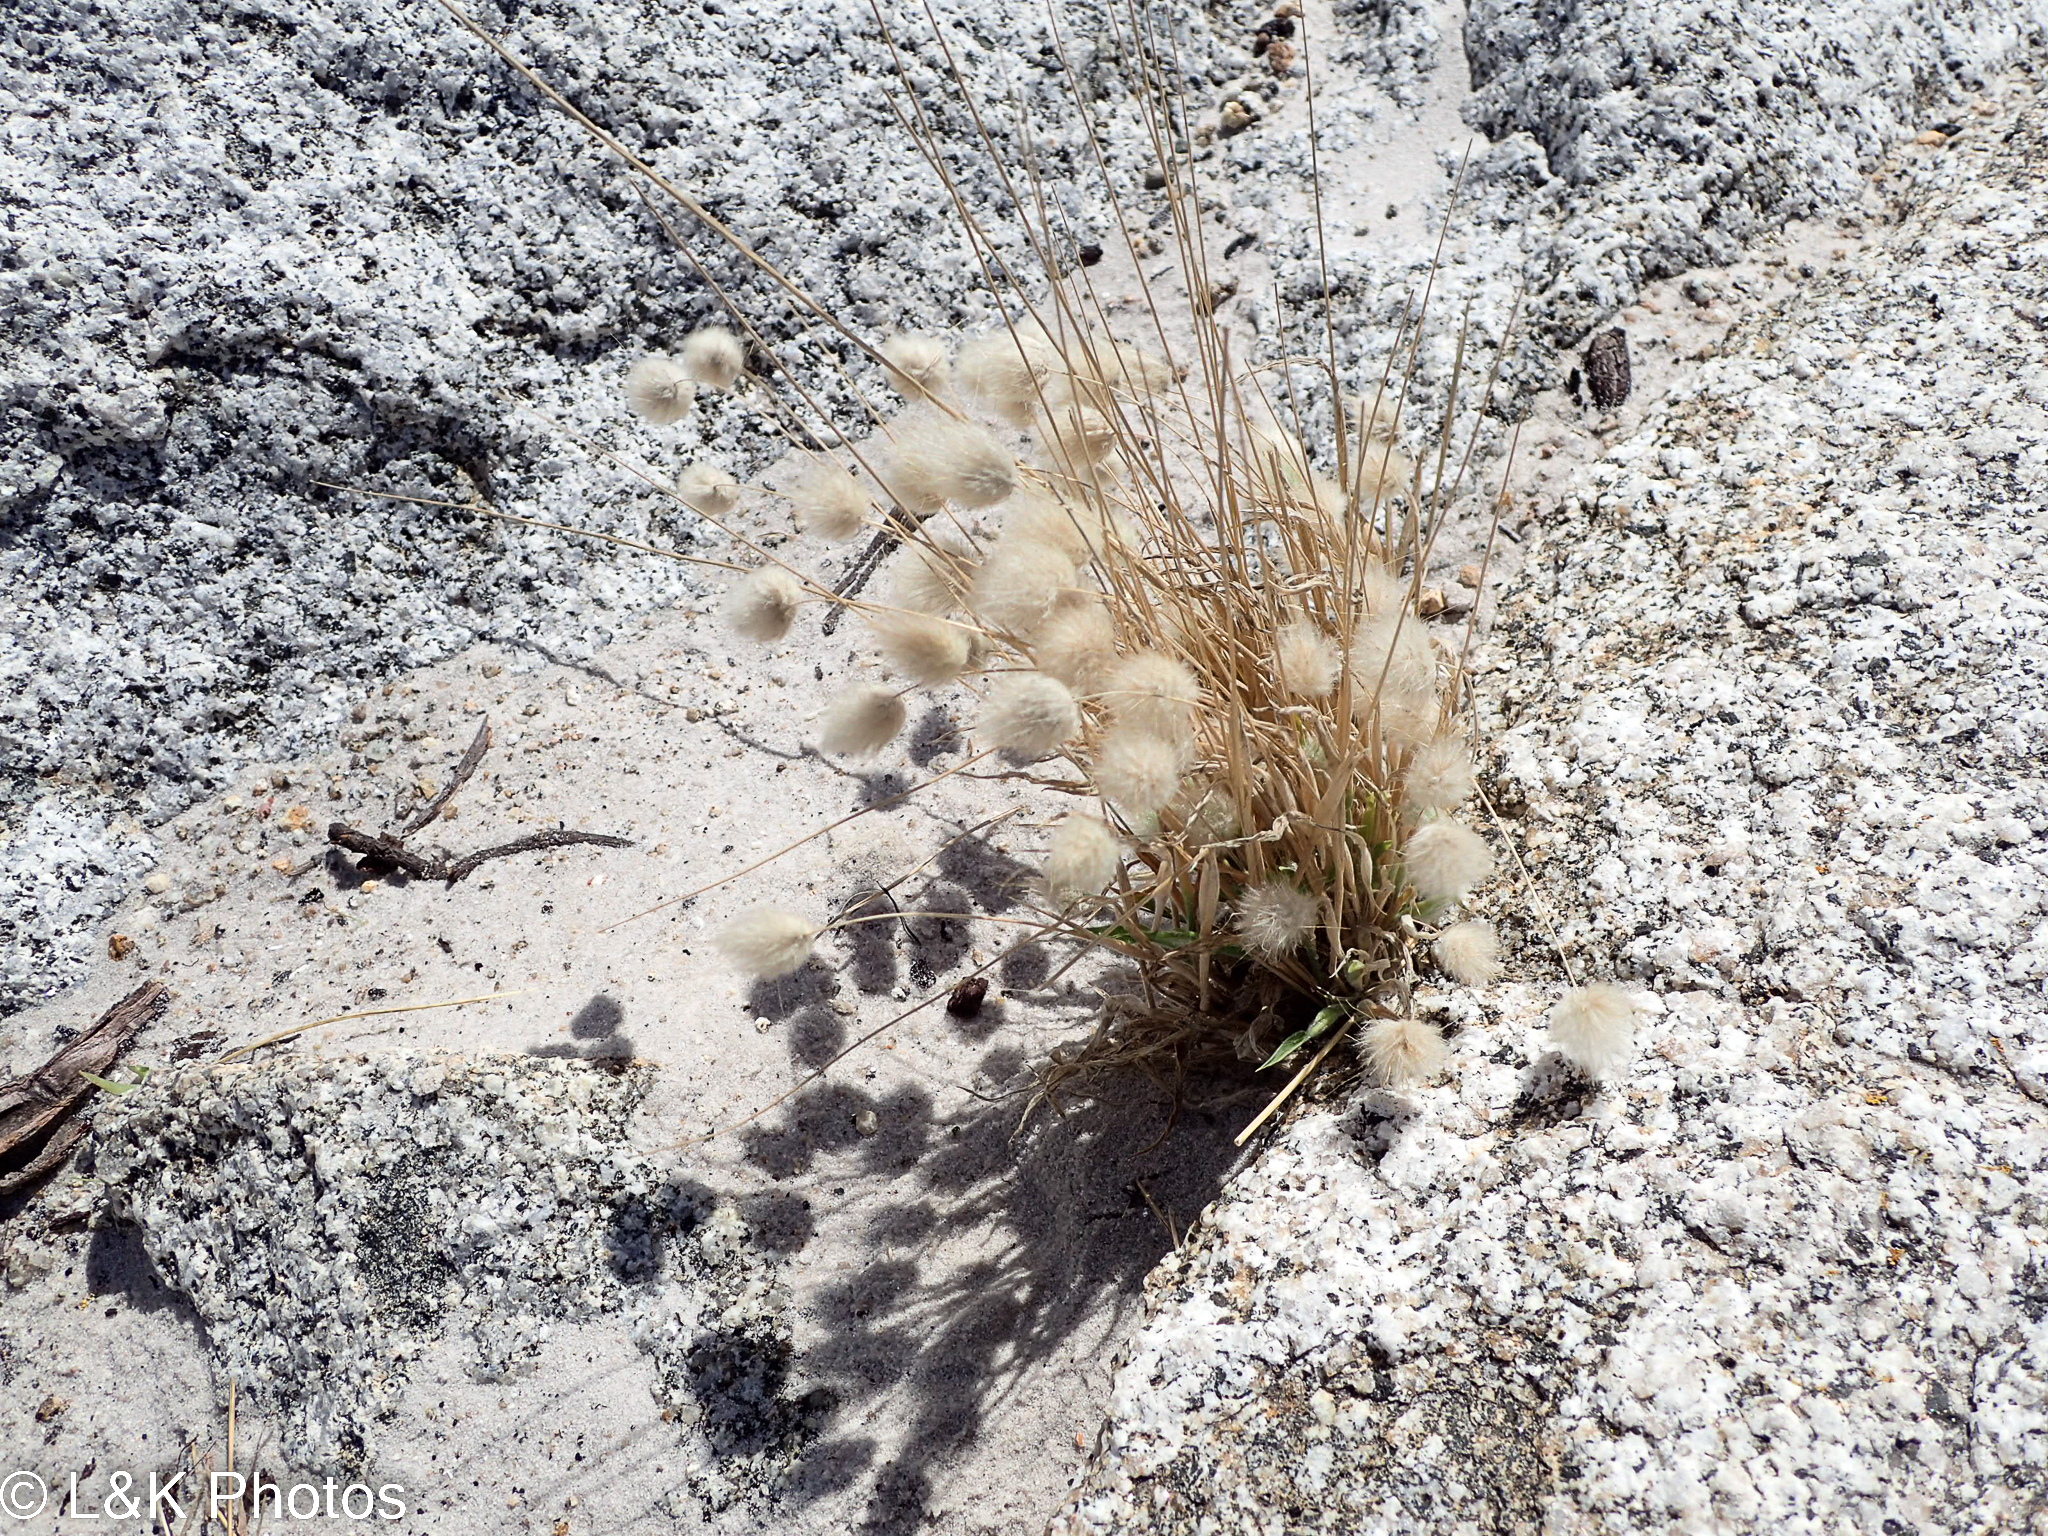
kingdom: Plantae
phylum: Tracheophyta
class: Liliopsida
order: Poales
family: Poaceae
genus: Lagurus
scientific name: Lagurus ovatus
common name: Hare's-tail
